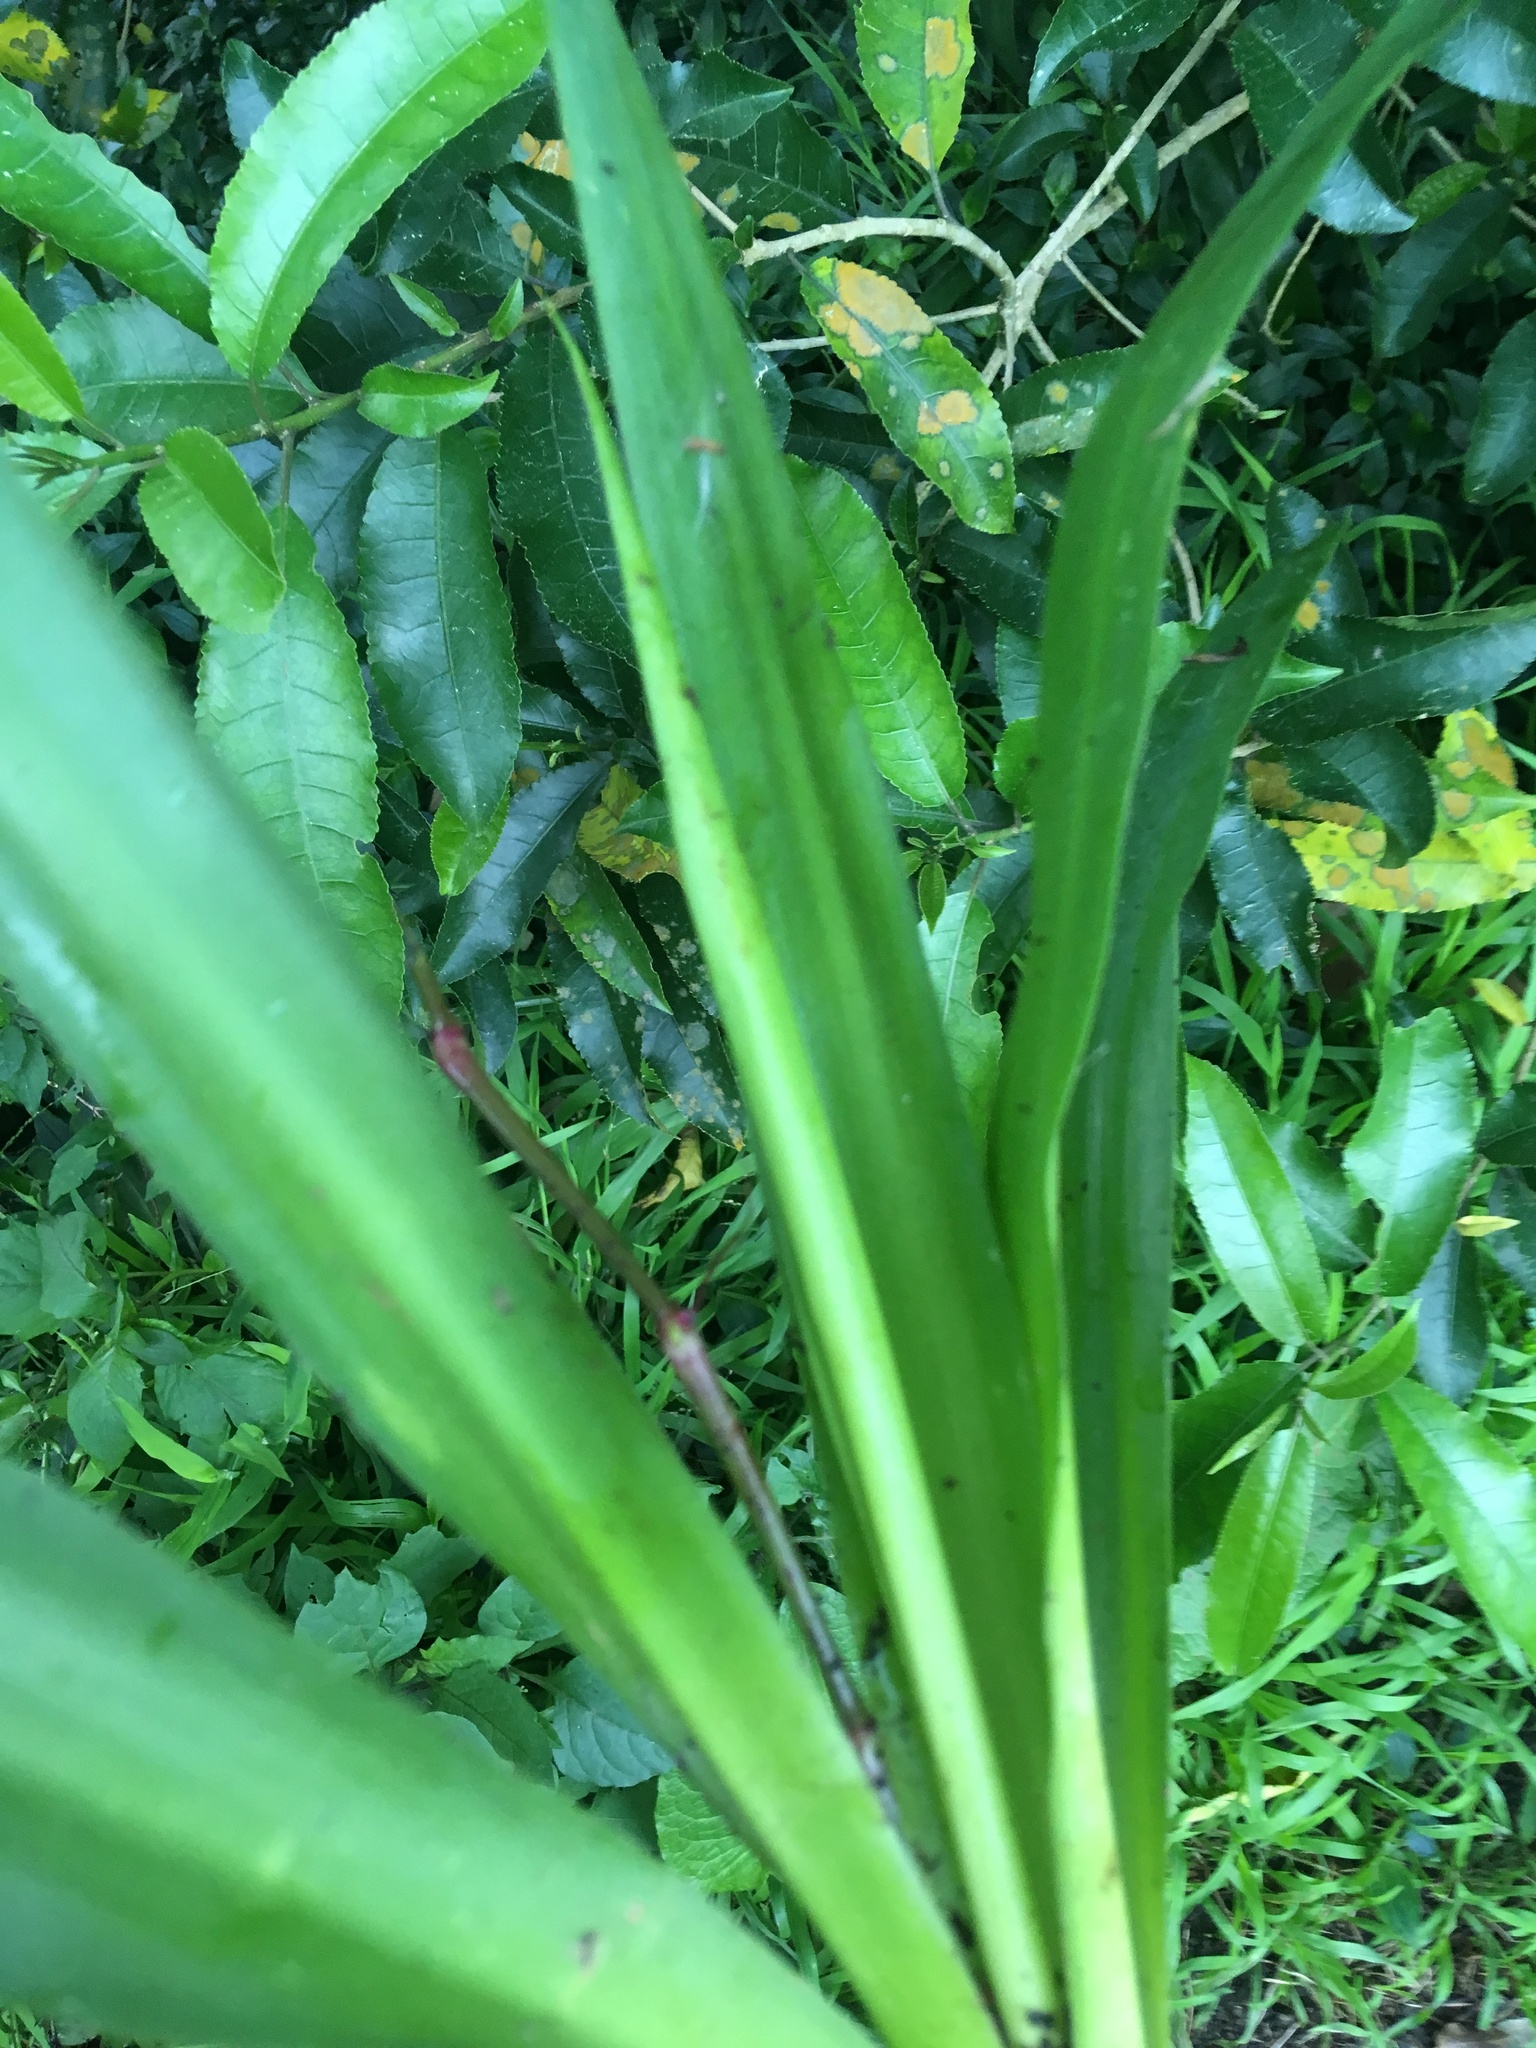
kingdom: Plantae
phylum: Tracheophyta
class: Liliopsida
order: Asparagales
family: Asparagaceae
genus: Yucca
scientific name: Yucca gigantea
